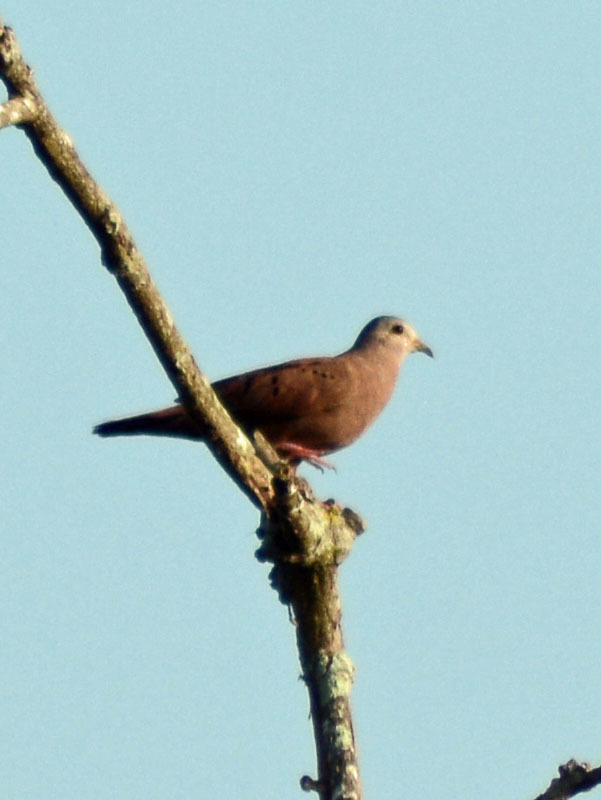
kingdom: Animalia
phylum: Chordata
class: Aves
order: Columbiformes
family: Columbidae
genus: Columbina
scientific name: Columbina talpacoti
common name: Ruddy ground dove
